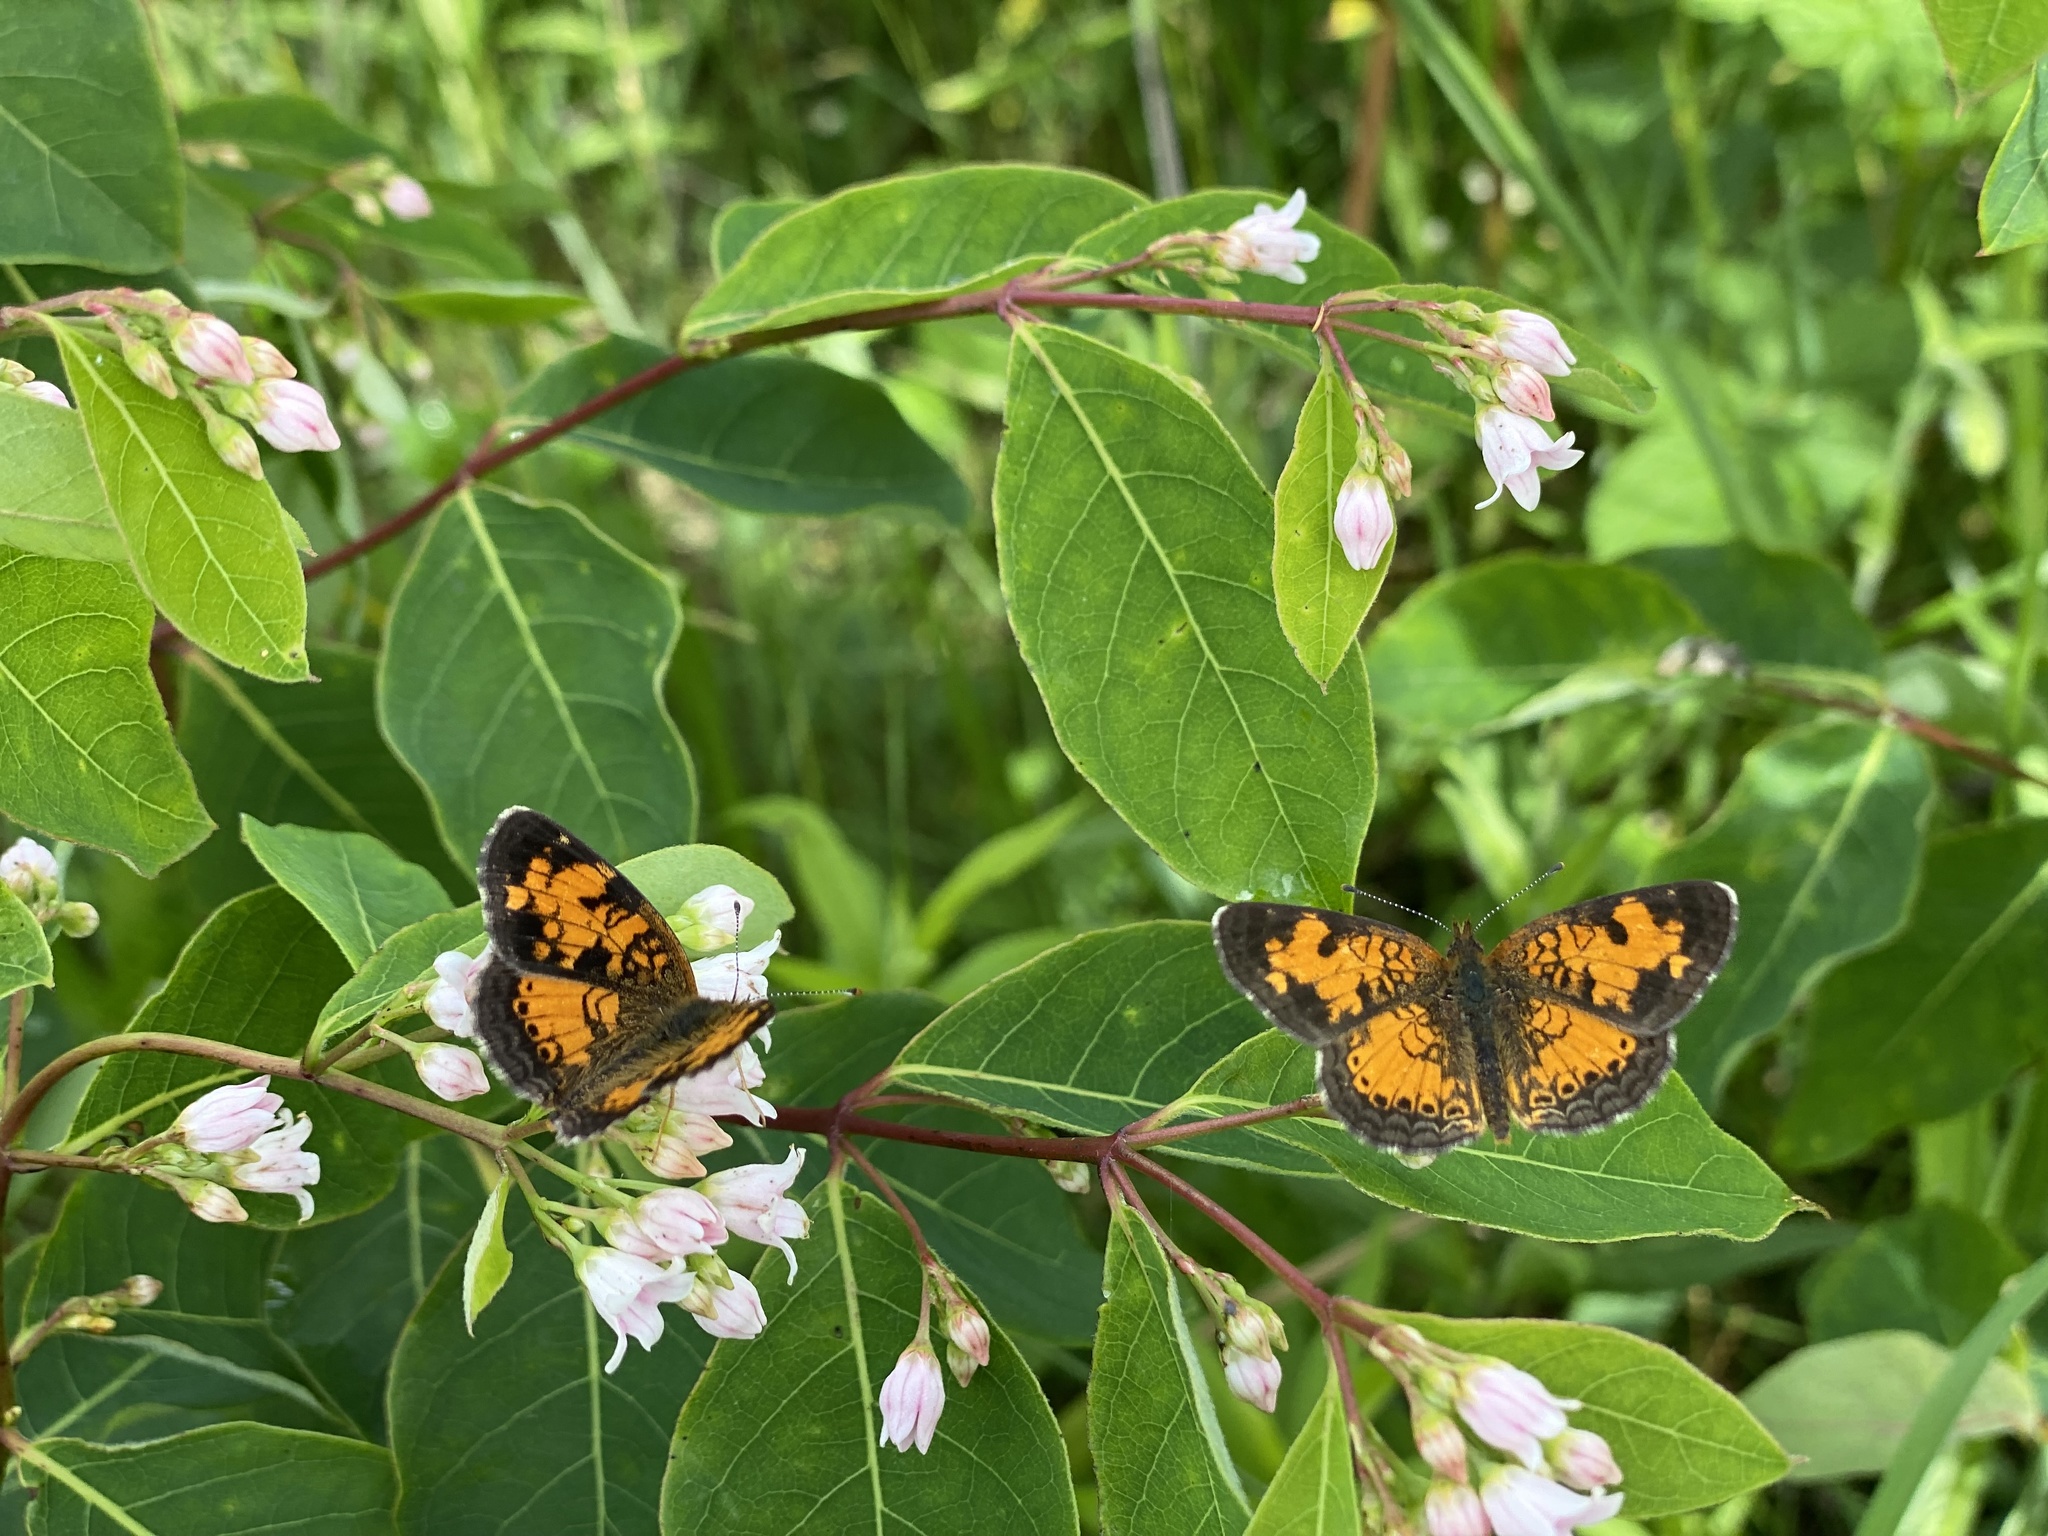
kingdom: Animalia
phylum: Arthropoda
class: Insecta
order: Lepidoptera
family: Nymphalidae
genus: Phyciodes
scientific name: Phyciodes tharos
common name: Pearl crescent
